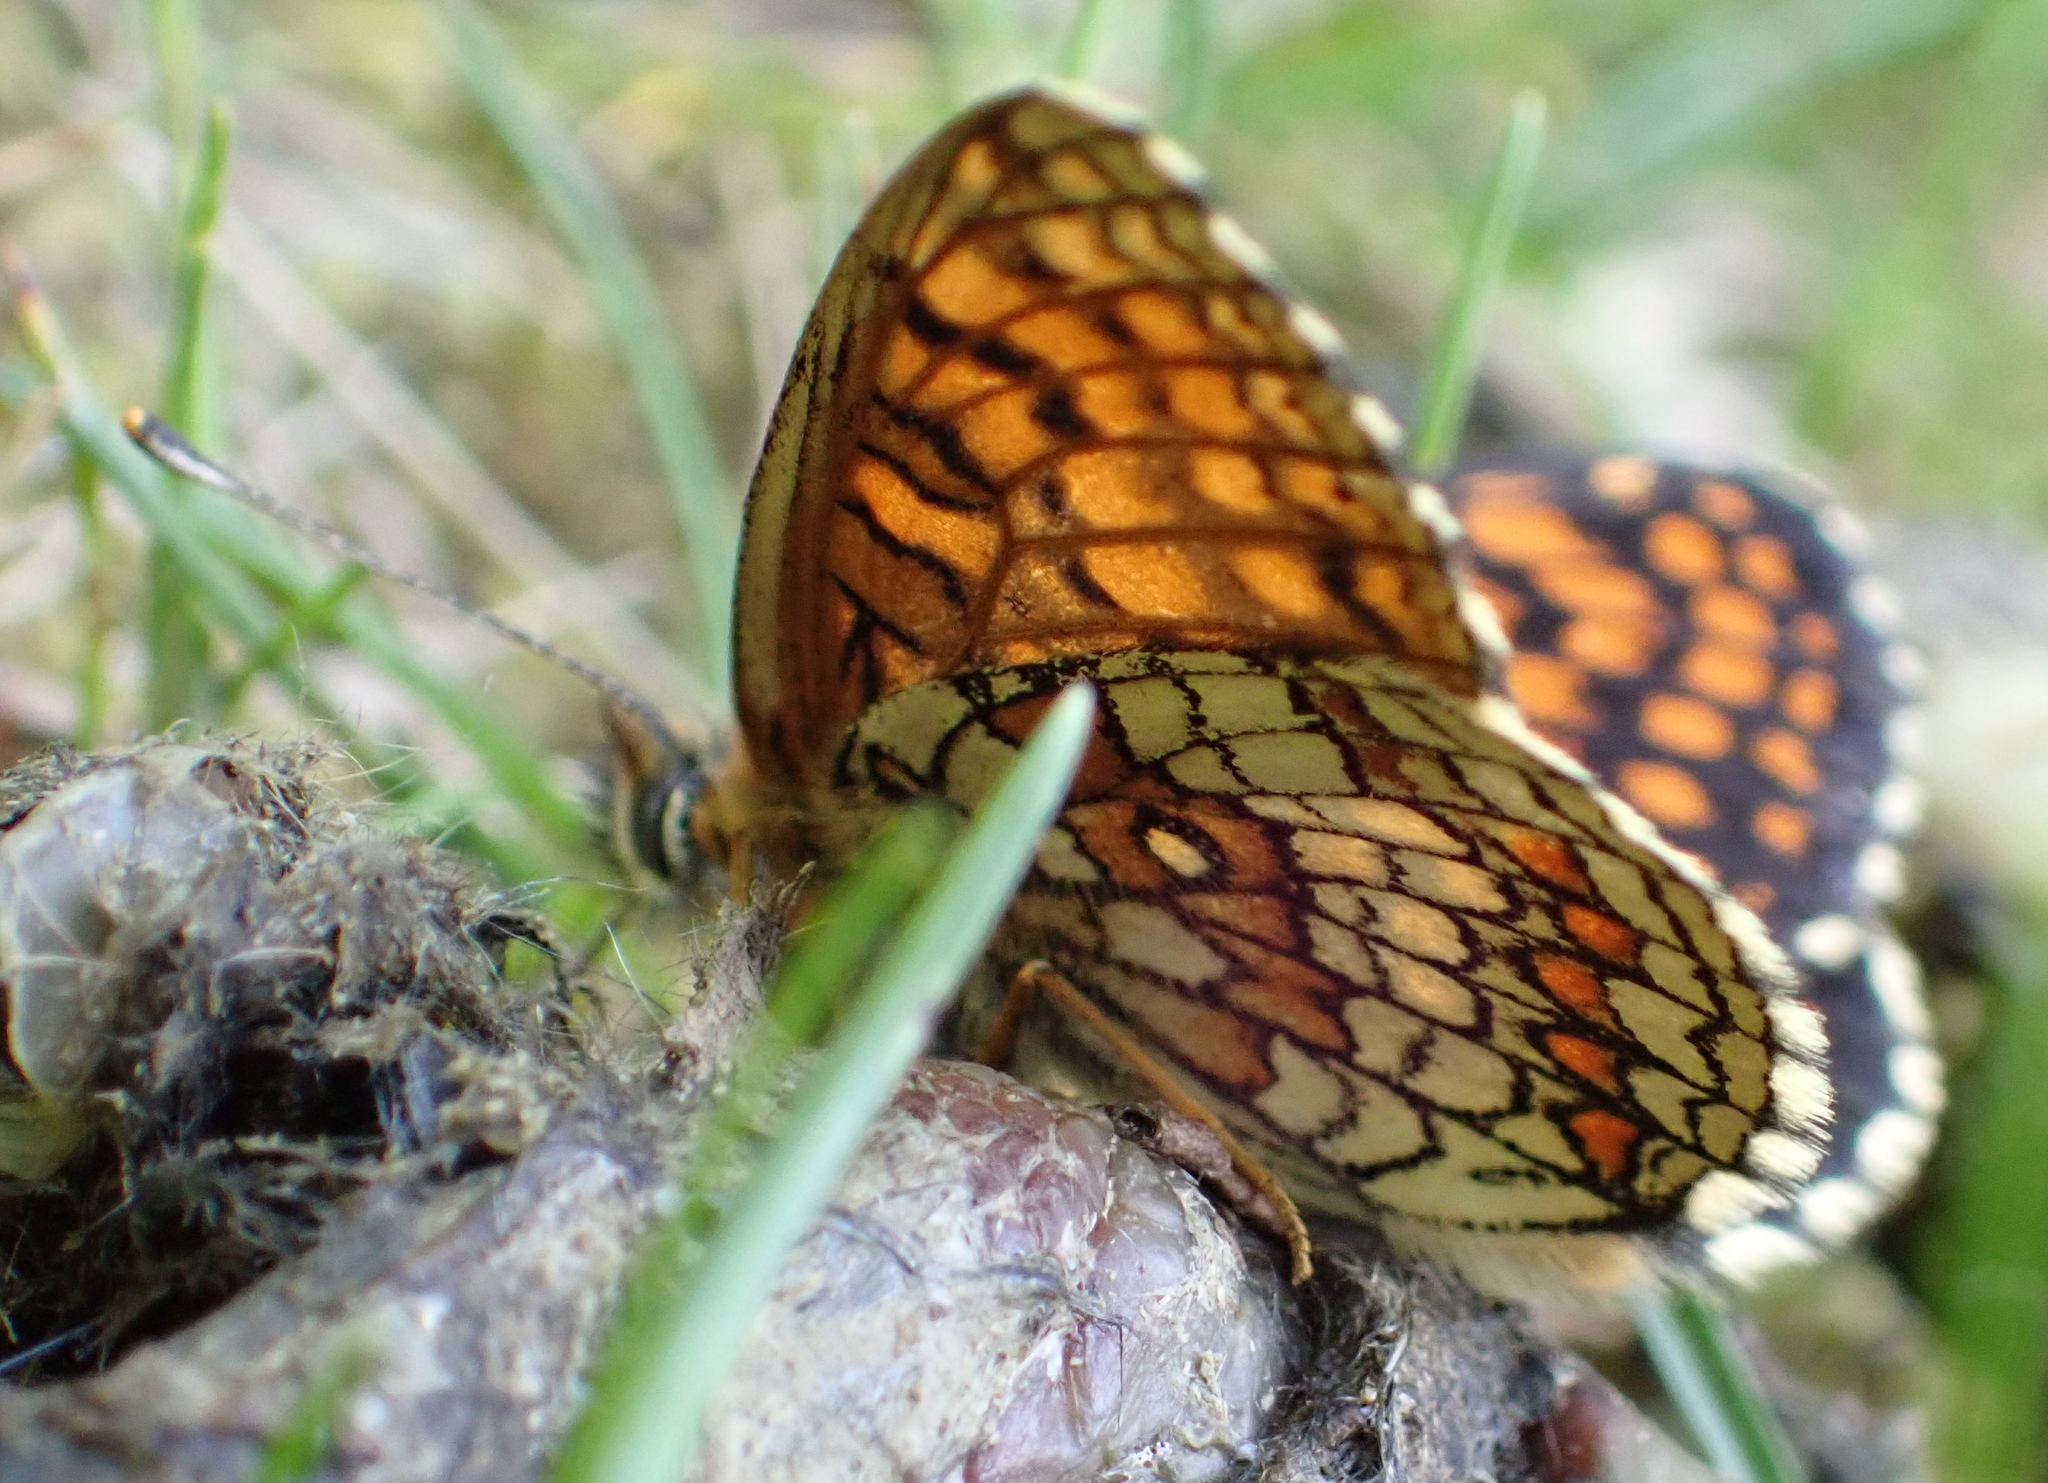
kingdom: Animalia
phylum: Arthropoda
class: Insecta
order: Lepidoptera
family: Nymphalidae
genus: Melitaea
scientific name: Melitaea athalia
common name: Heath fritillary
